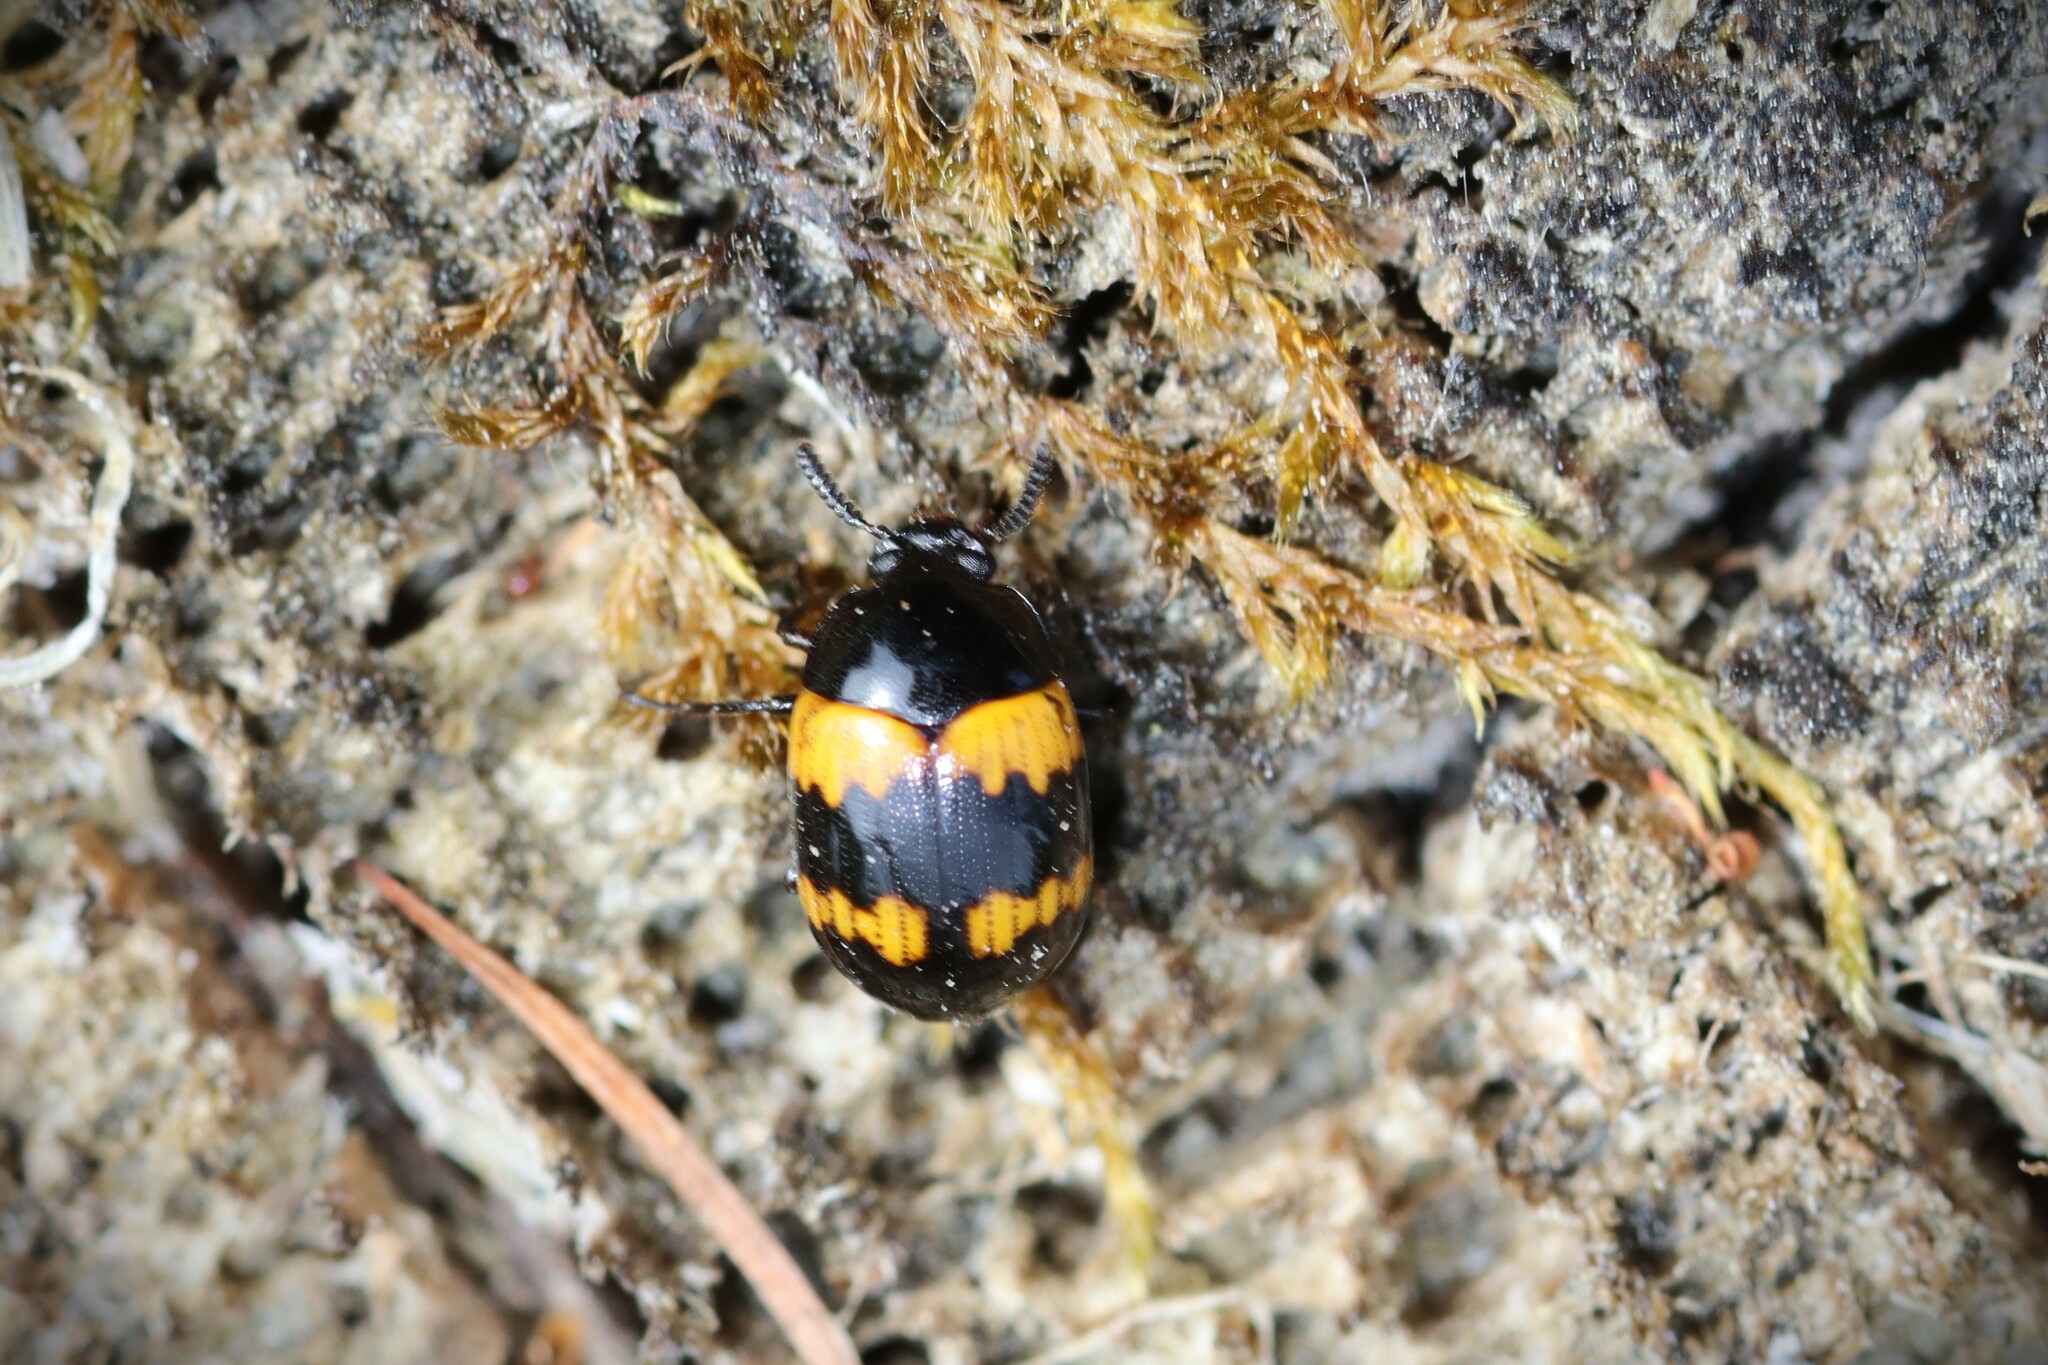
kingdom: Animalia
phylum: Arthropoda
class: Insecta
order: Coleoptera
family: Tenebrionidae
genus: Diaperis
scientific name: Diaperis boleti
